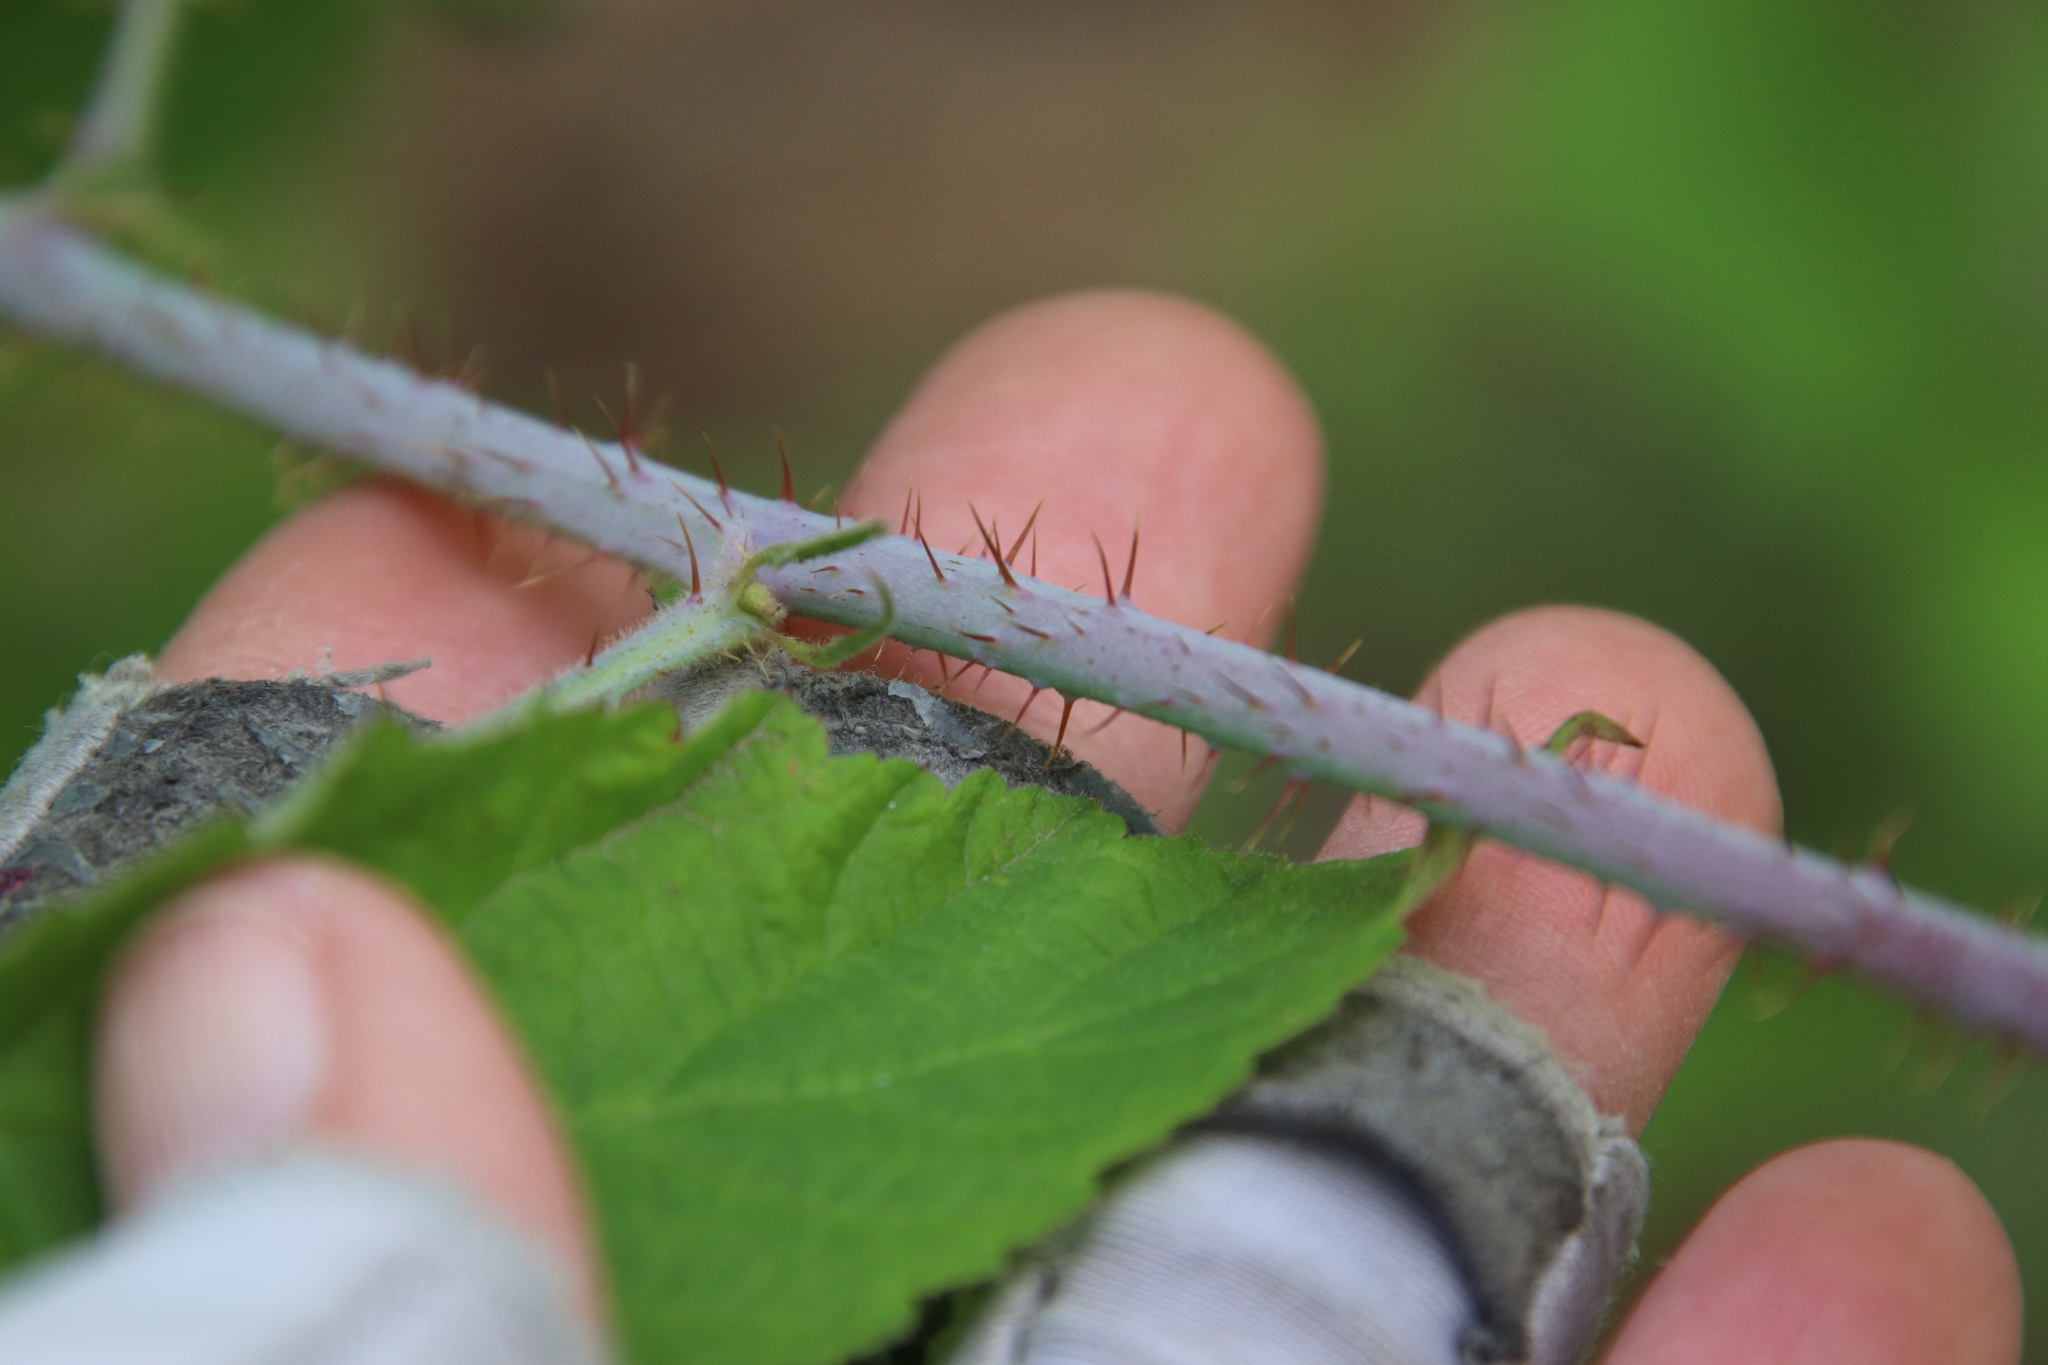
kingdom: Plantae
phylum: Tracheophyta
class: Magnoliopsida
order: Rosales
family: Rosaceae
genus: Rubus
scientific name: Rubus ursinus
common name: Pacific blackberry
